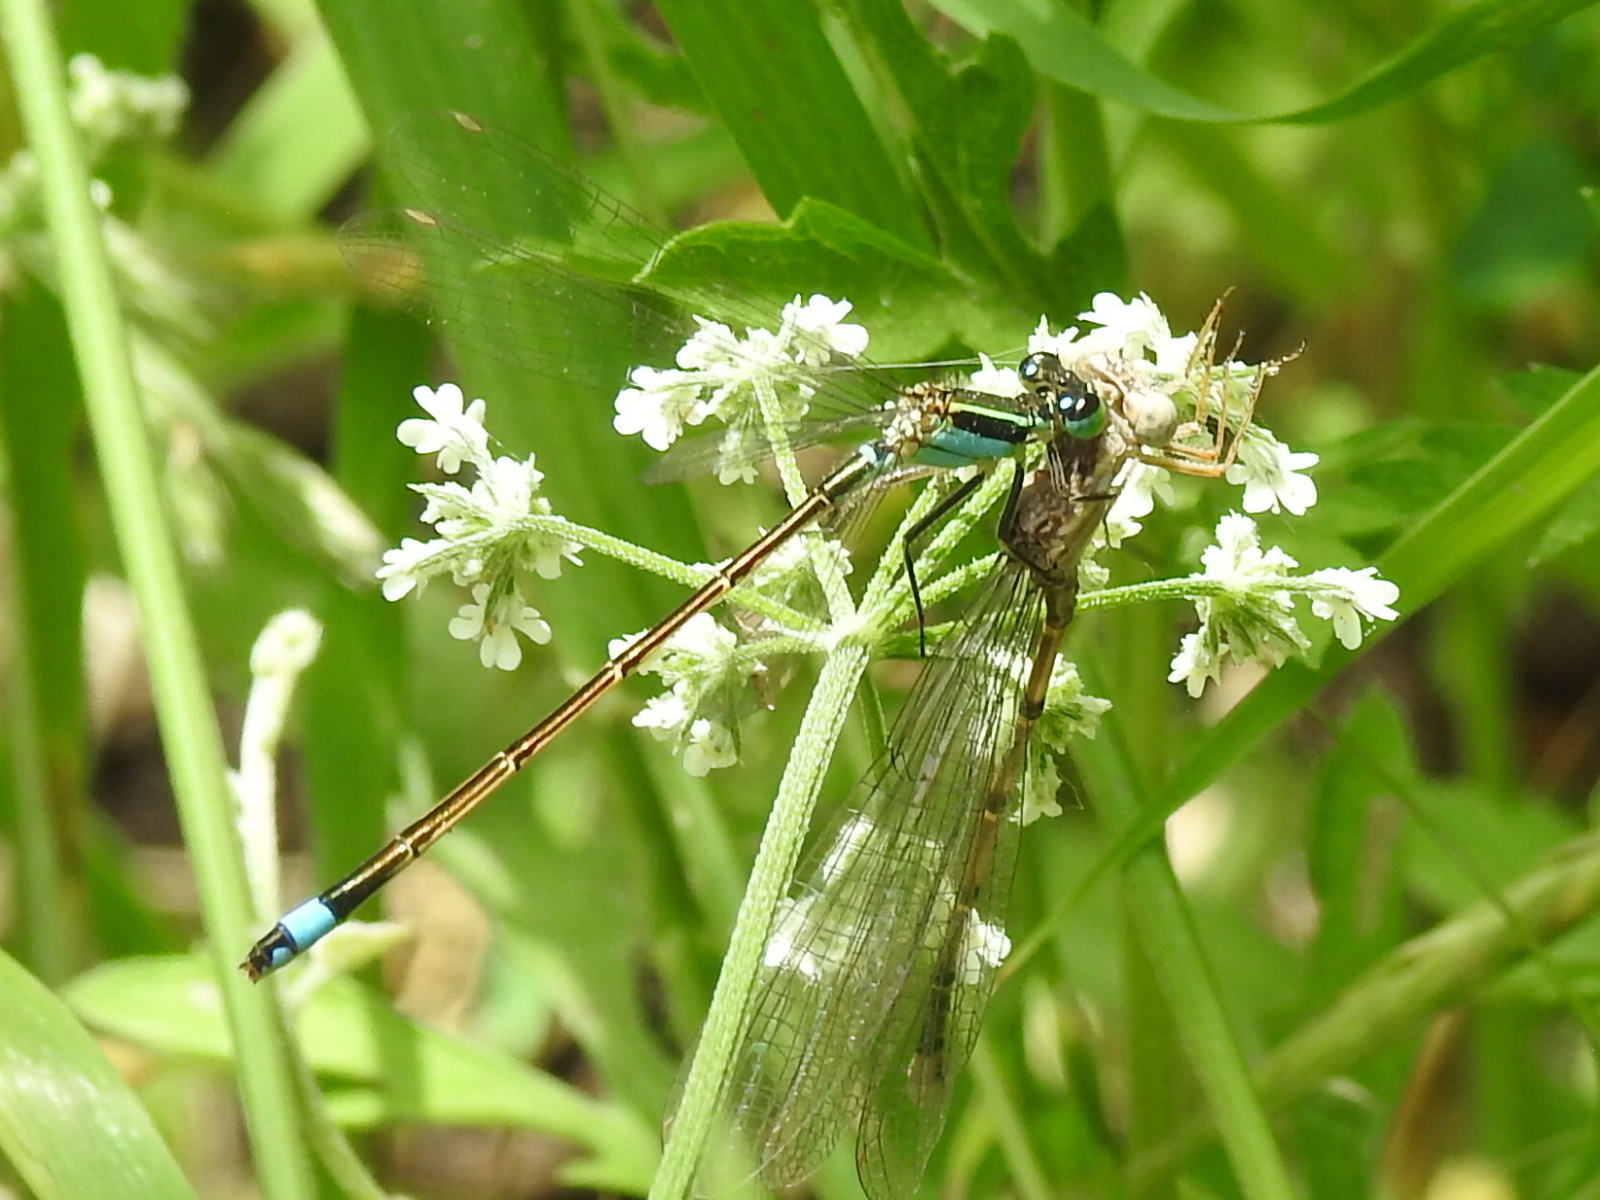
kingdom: Animalia
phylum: Arthropoda
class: Insecta
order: Odonata
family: Coenagrionidae
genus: Ischnura
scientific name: Ischnura ramburii
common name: Rambur's forktail
